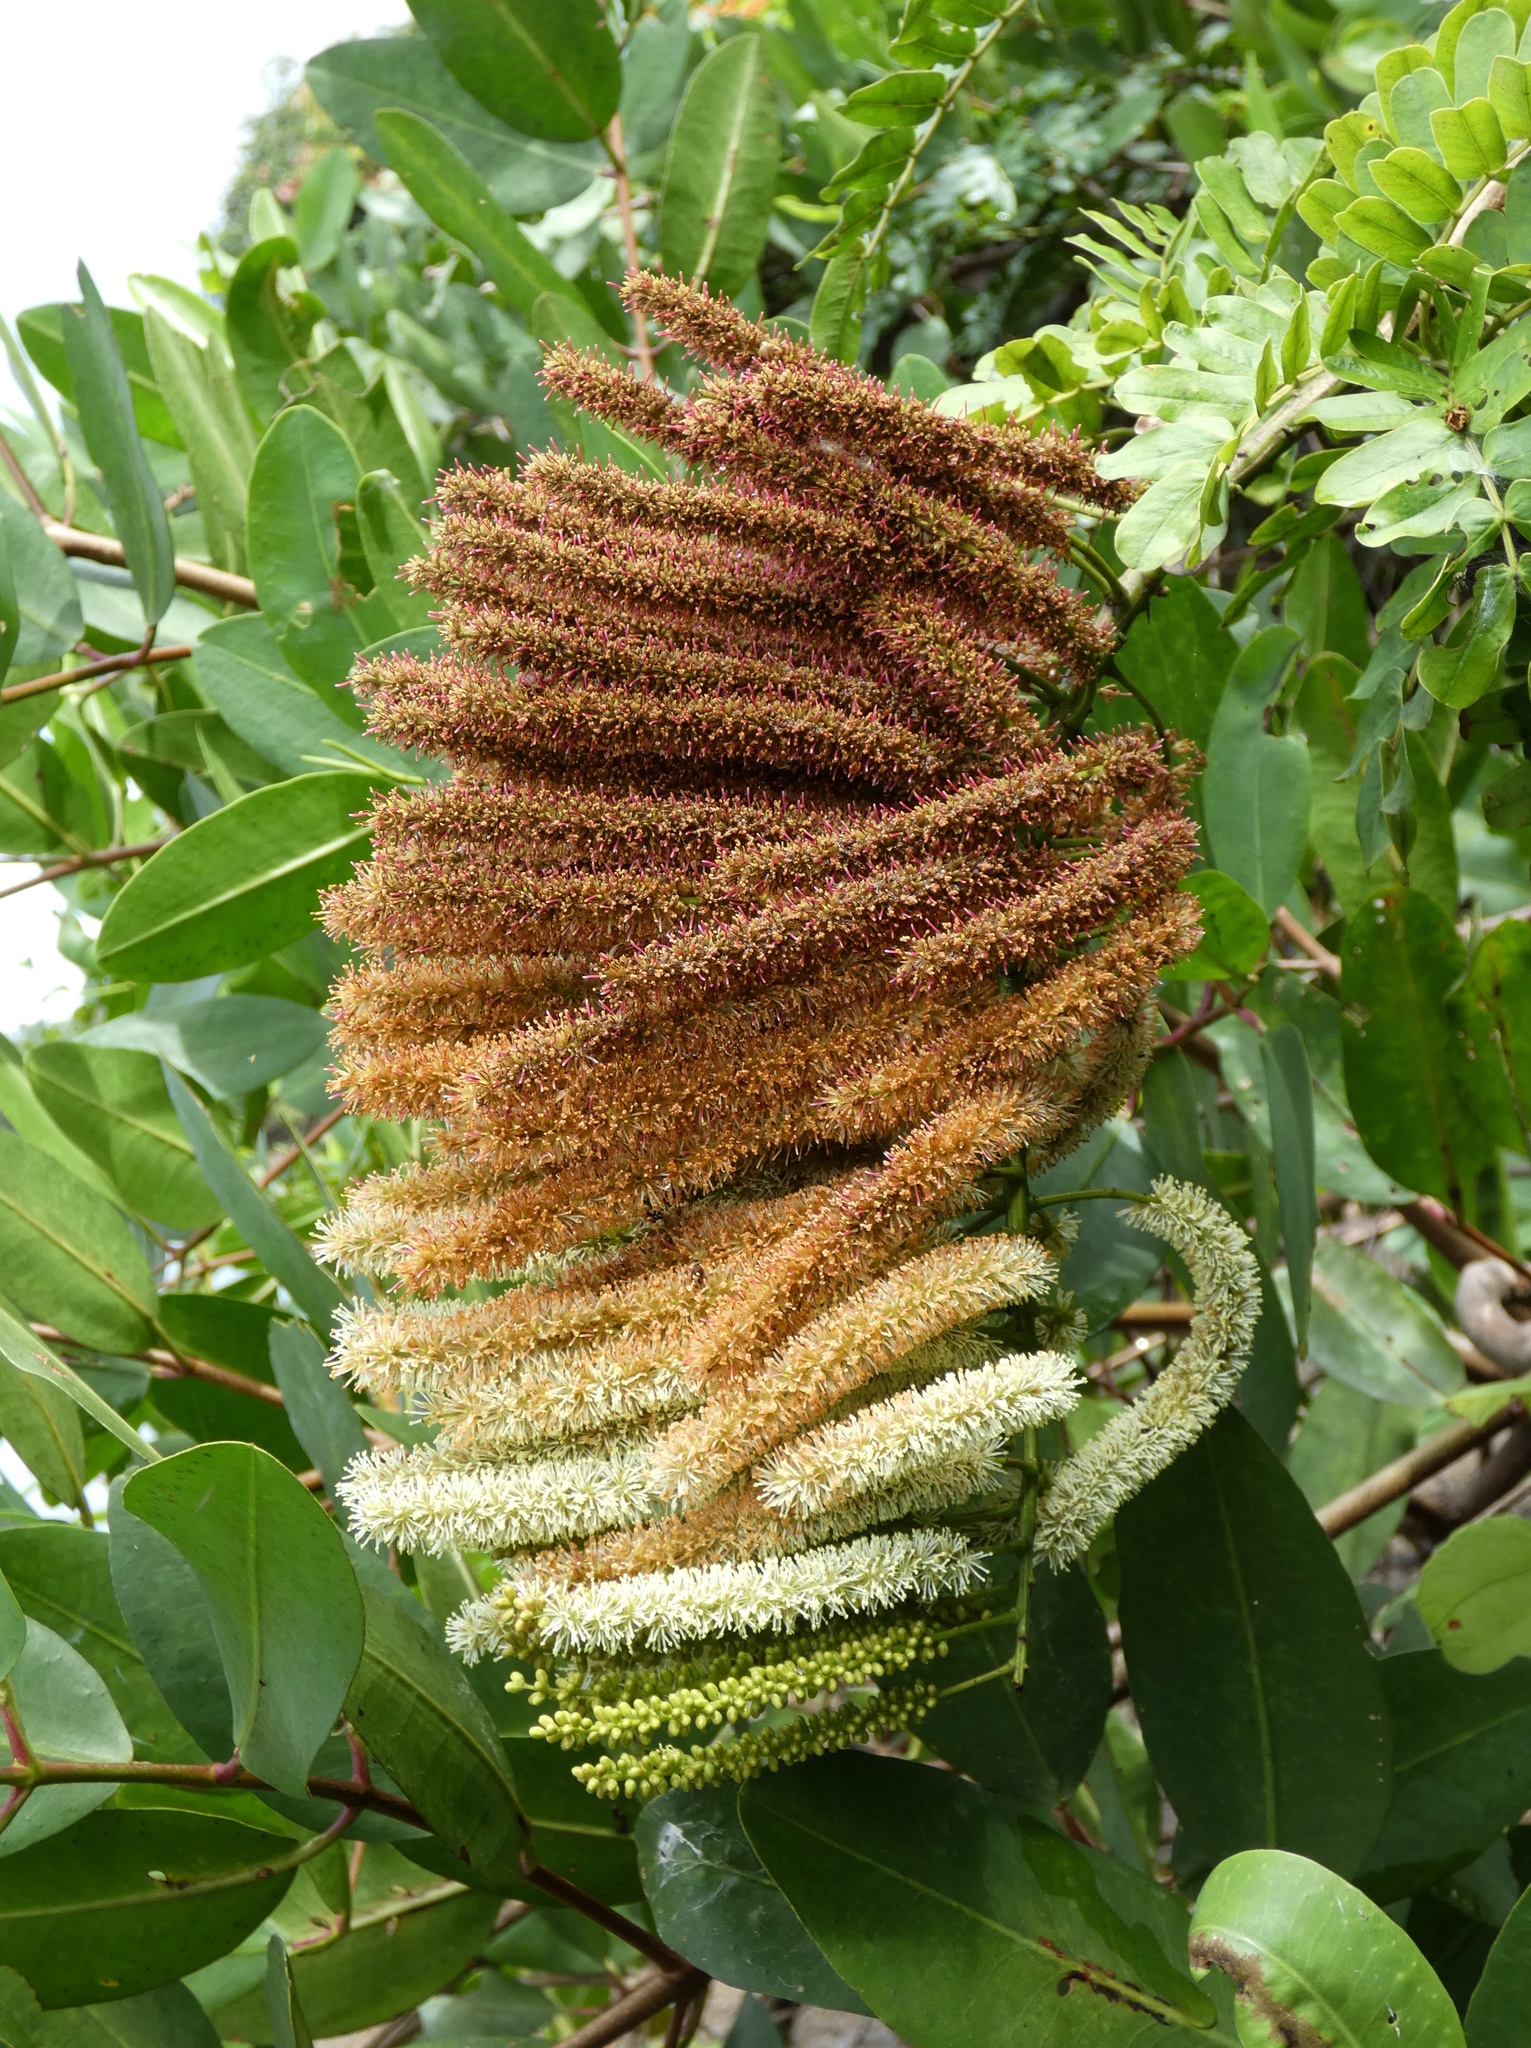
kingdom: Plantae
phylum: Tracheophyta
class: Magnoliopsida
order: Fabales
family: Fabaceae
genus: Entada
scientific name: Entada polystachya
